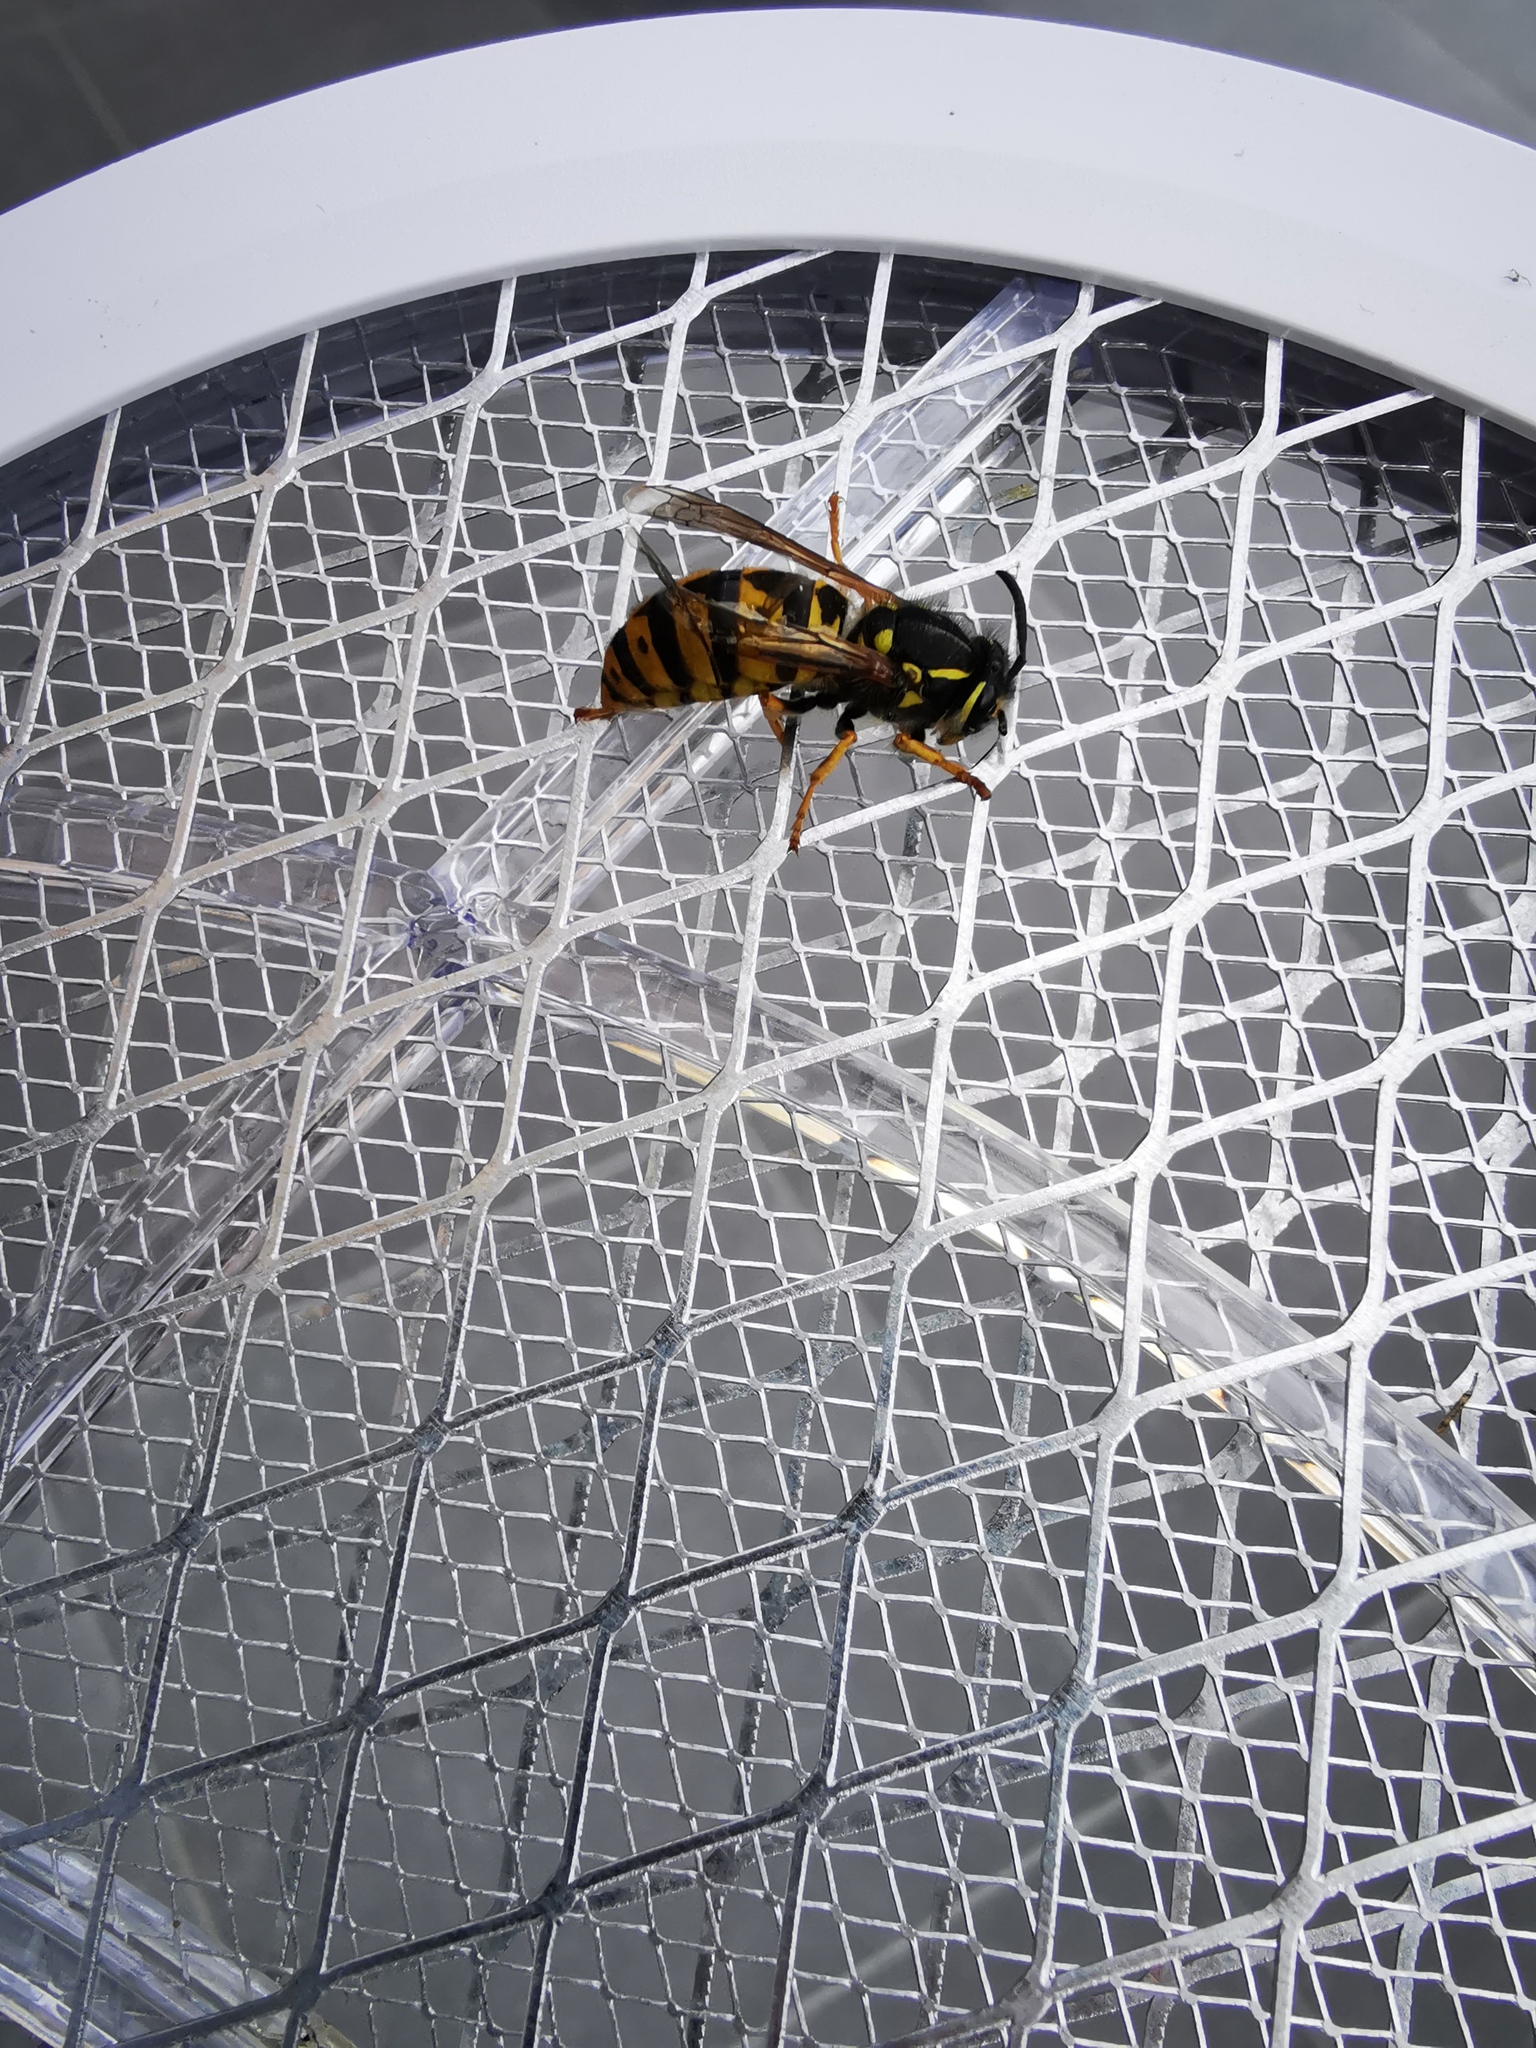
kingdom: Animalia
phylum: Arthropoda
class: Insecta
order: Hymenoptera
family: Vespidae
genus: Vespula
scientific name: Vespula germanica
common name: German wasp
